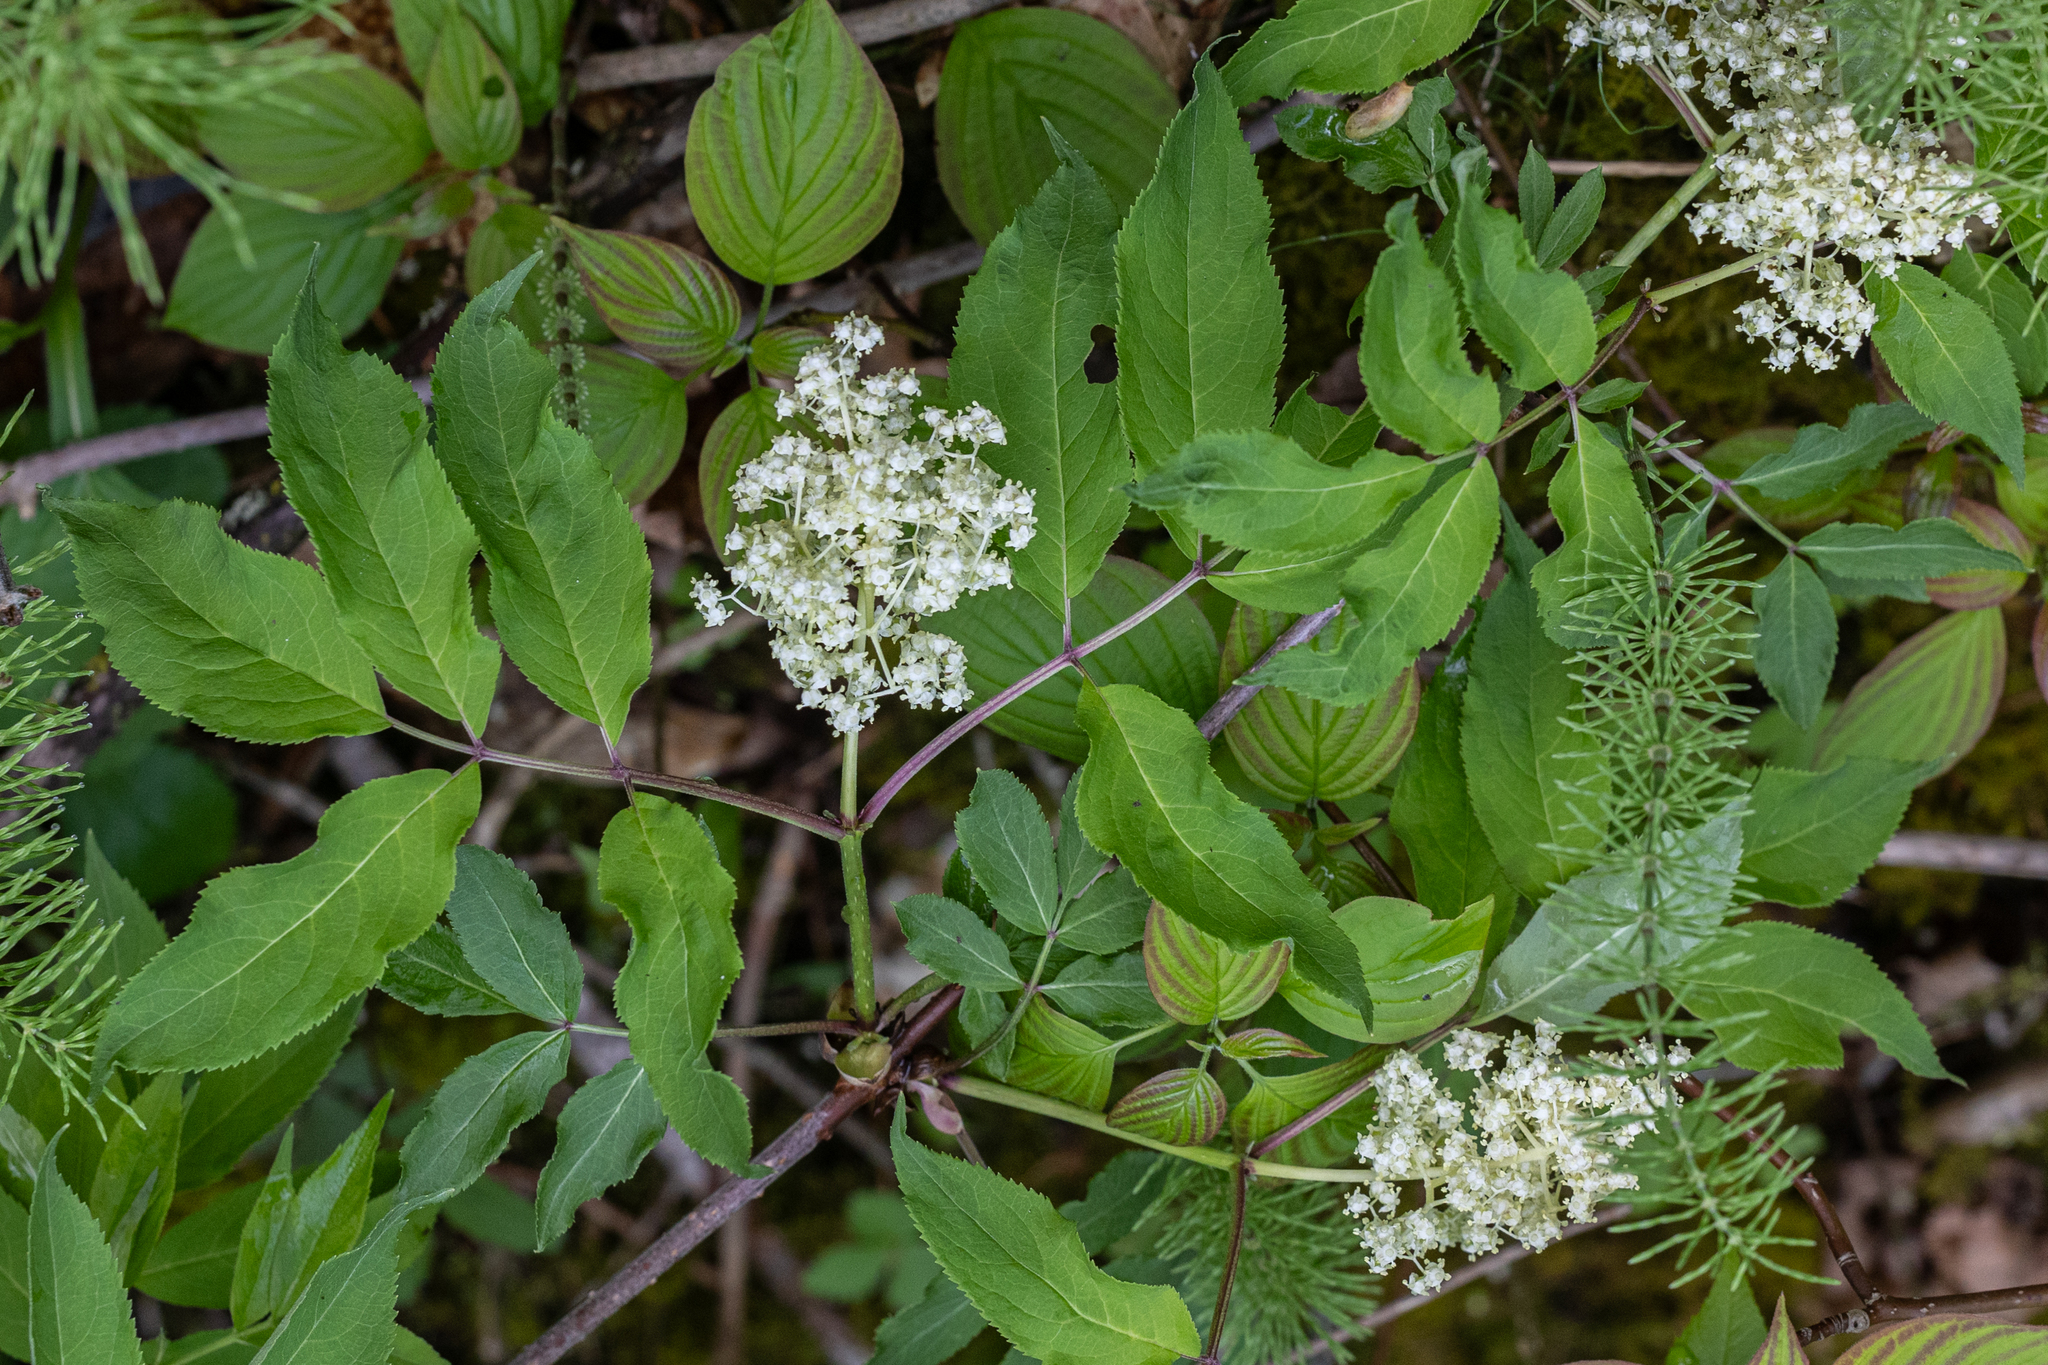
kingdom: Plantae
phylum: Tracheophyta
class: Magnoliopsida
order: Dipsacales
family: Viburnaceae
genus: Sambucus
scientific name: Sambucus racemosa
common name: Red-berried elder
